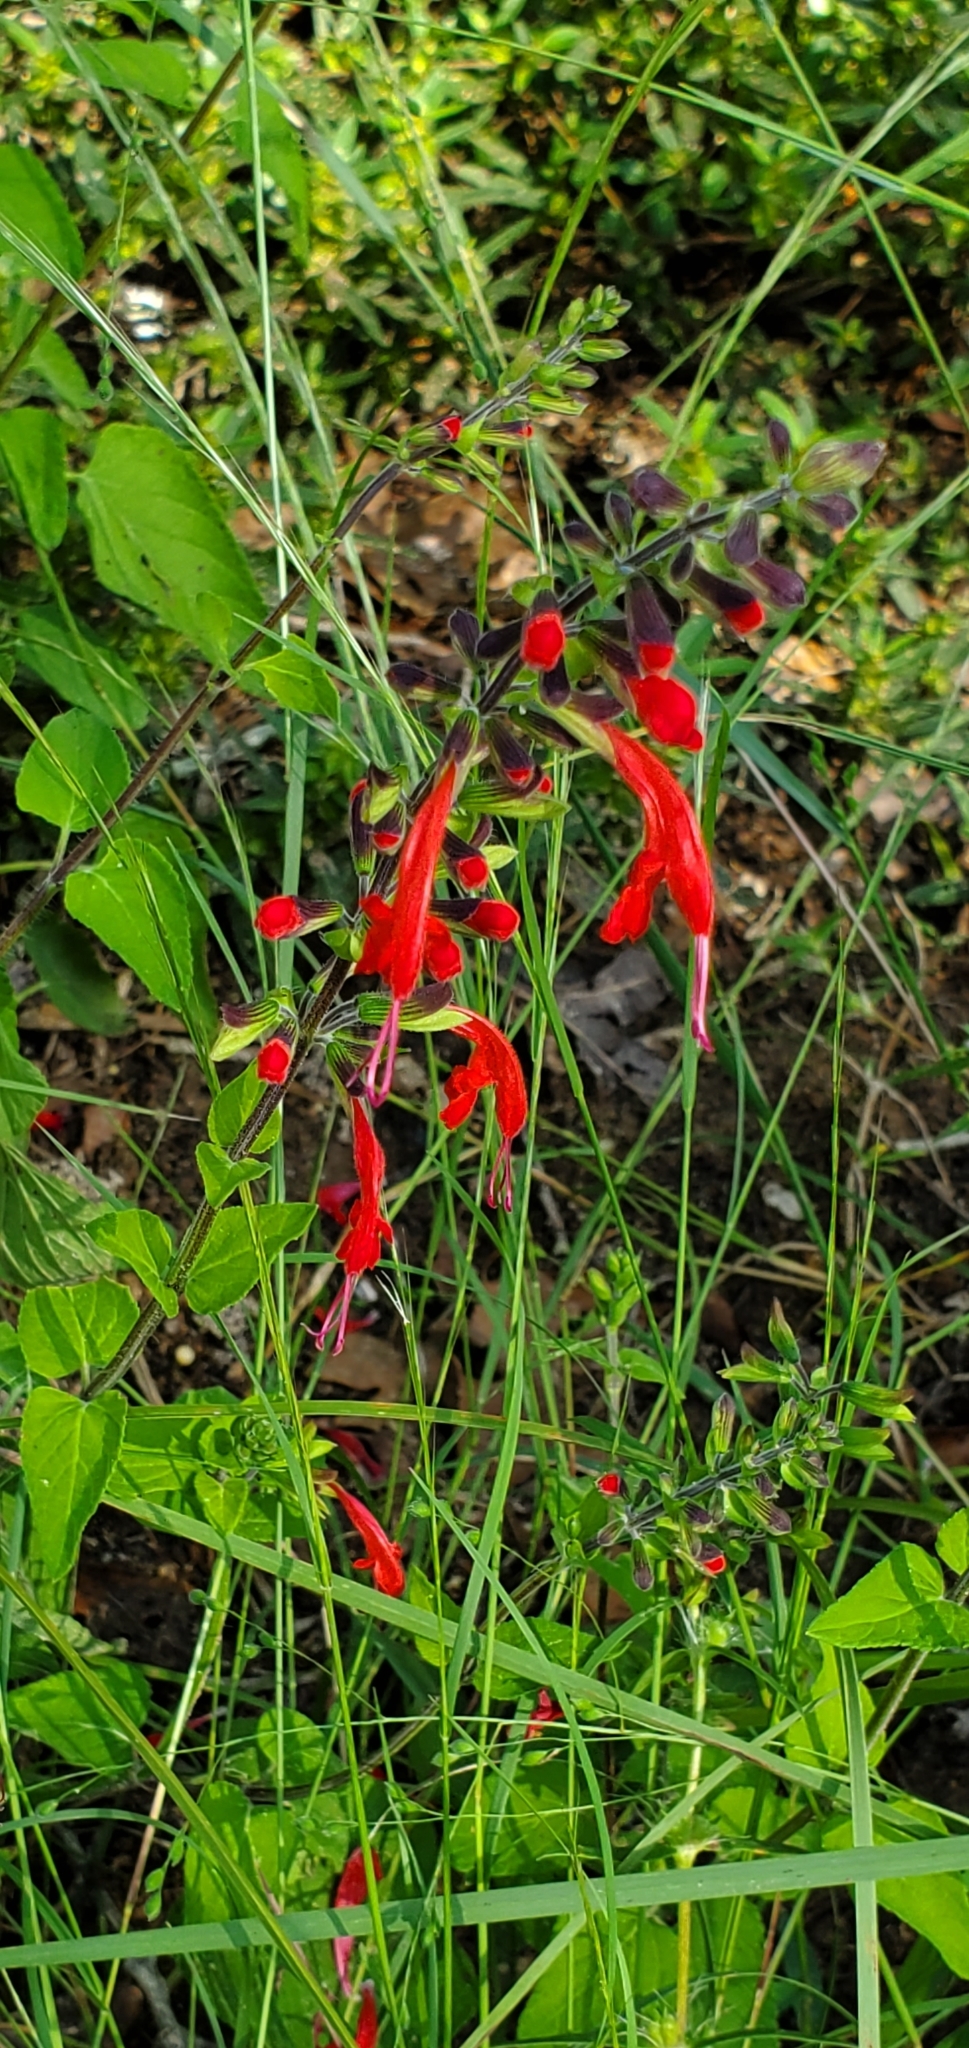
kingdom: Plantae
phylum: Tracheophyta
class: Magnoliopsida
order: Lamiales
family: Lamiaceae
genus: Salvia
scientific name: Salvia coccinea
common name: Blood sage
